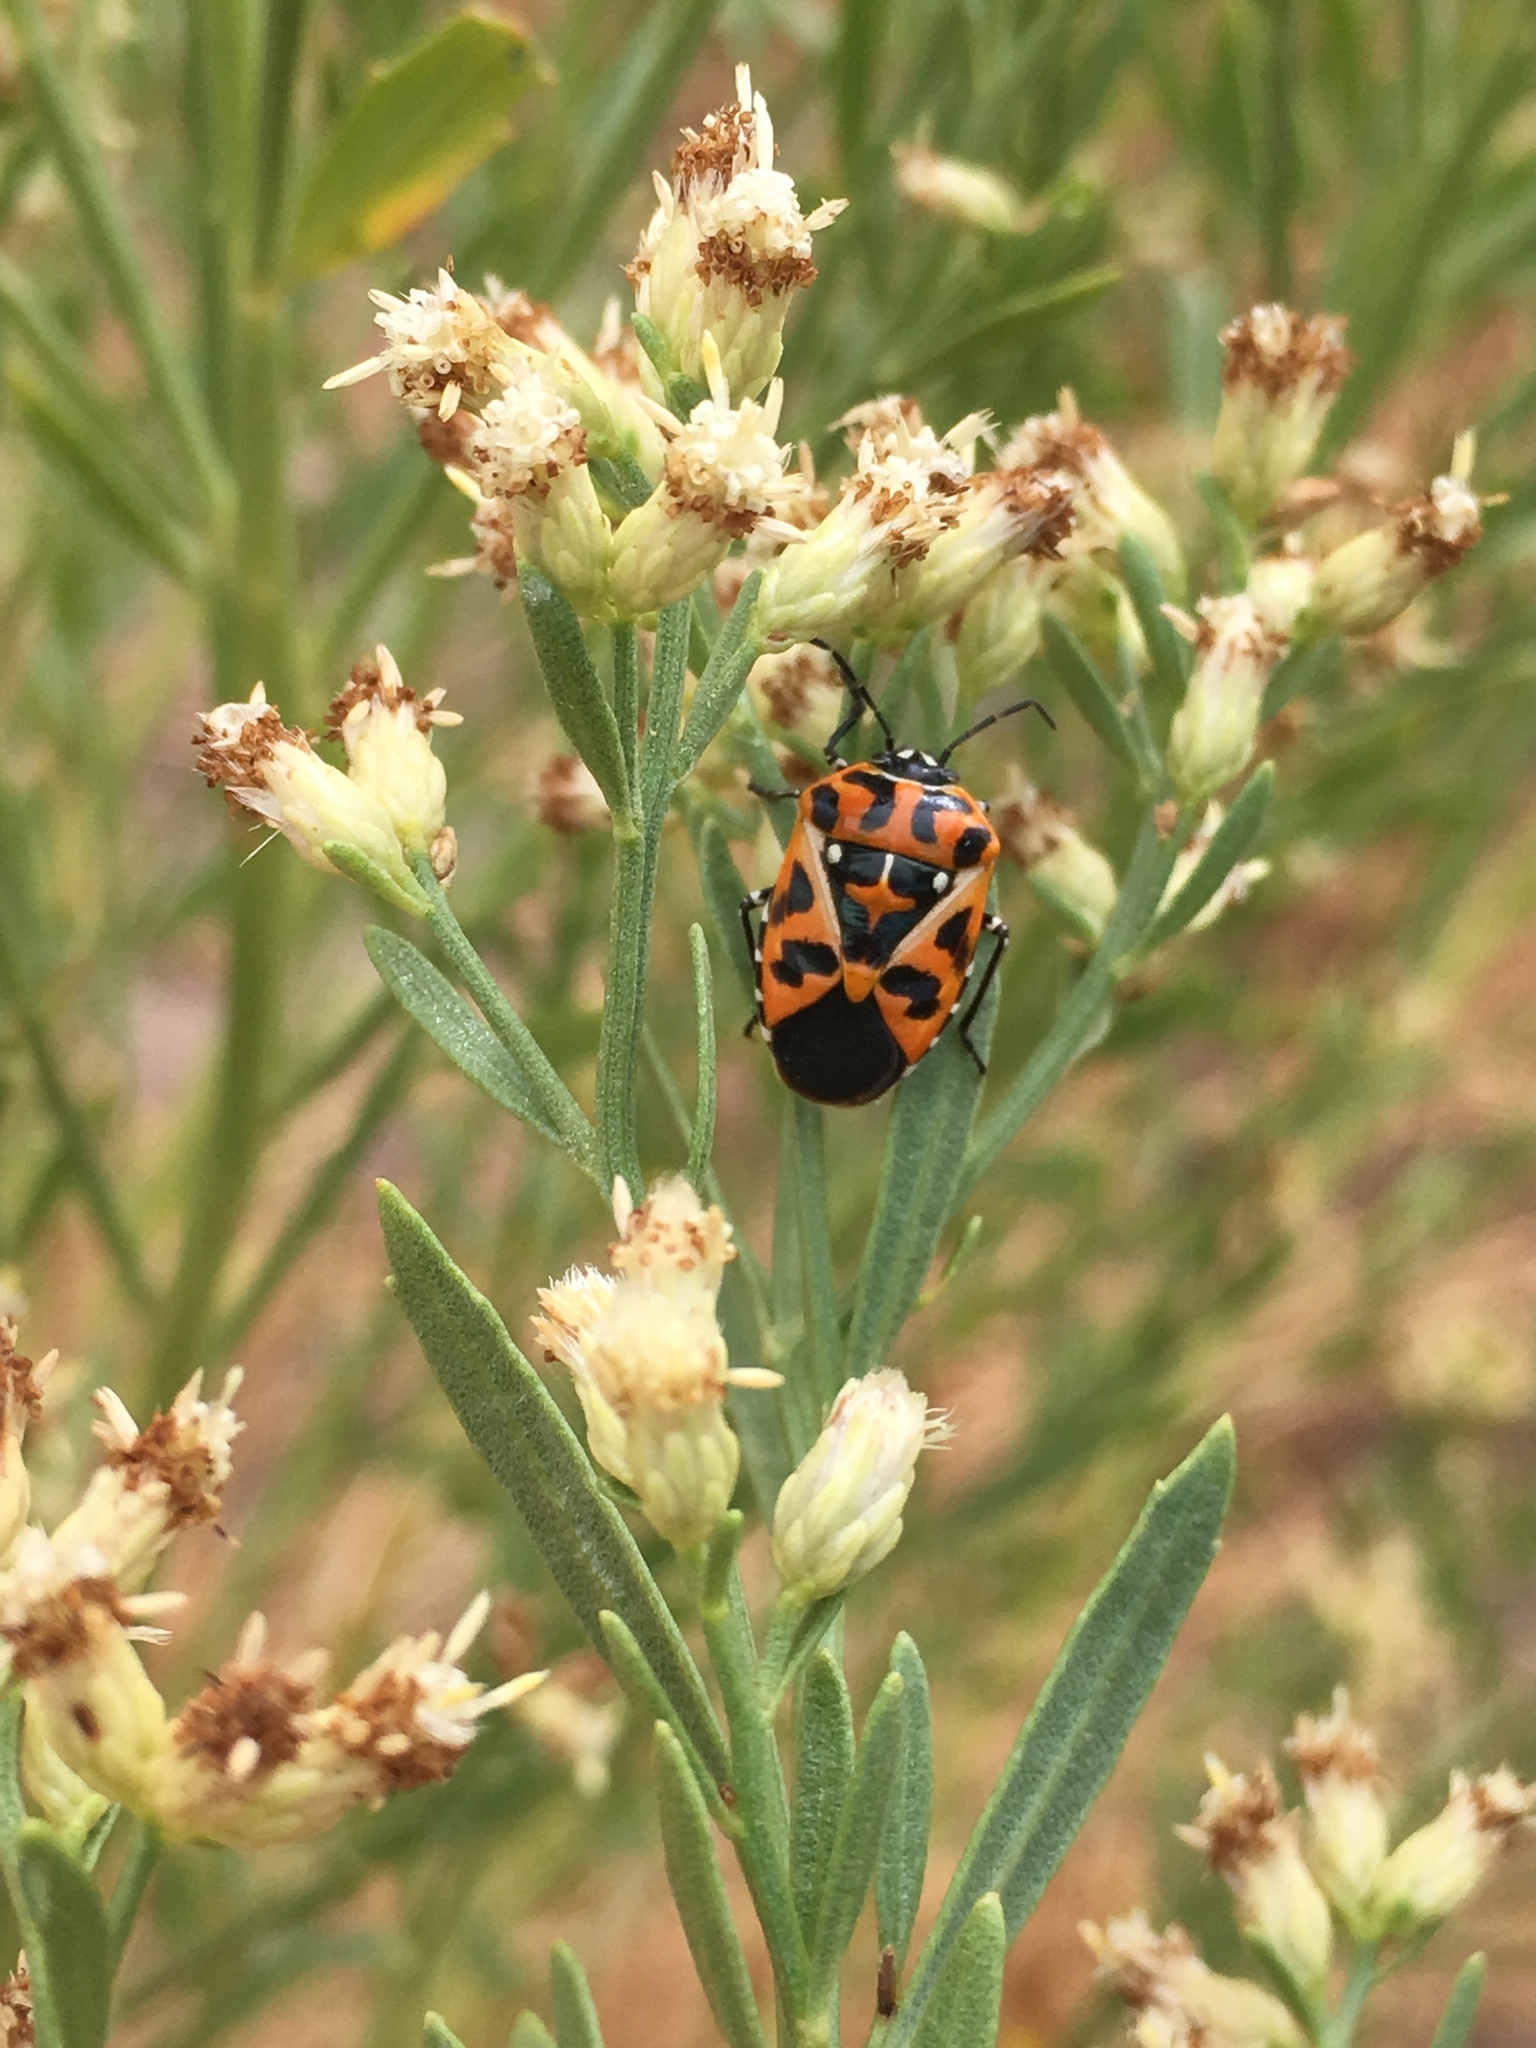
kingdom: Animalia
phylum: Arthropoda
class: Insecta
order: Hemiptera
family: Pentatomidae
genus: Murgantia
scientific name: Murgantia histrionica
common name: Harlequin bug
